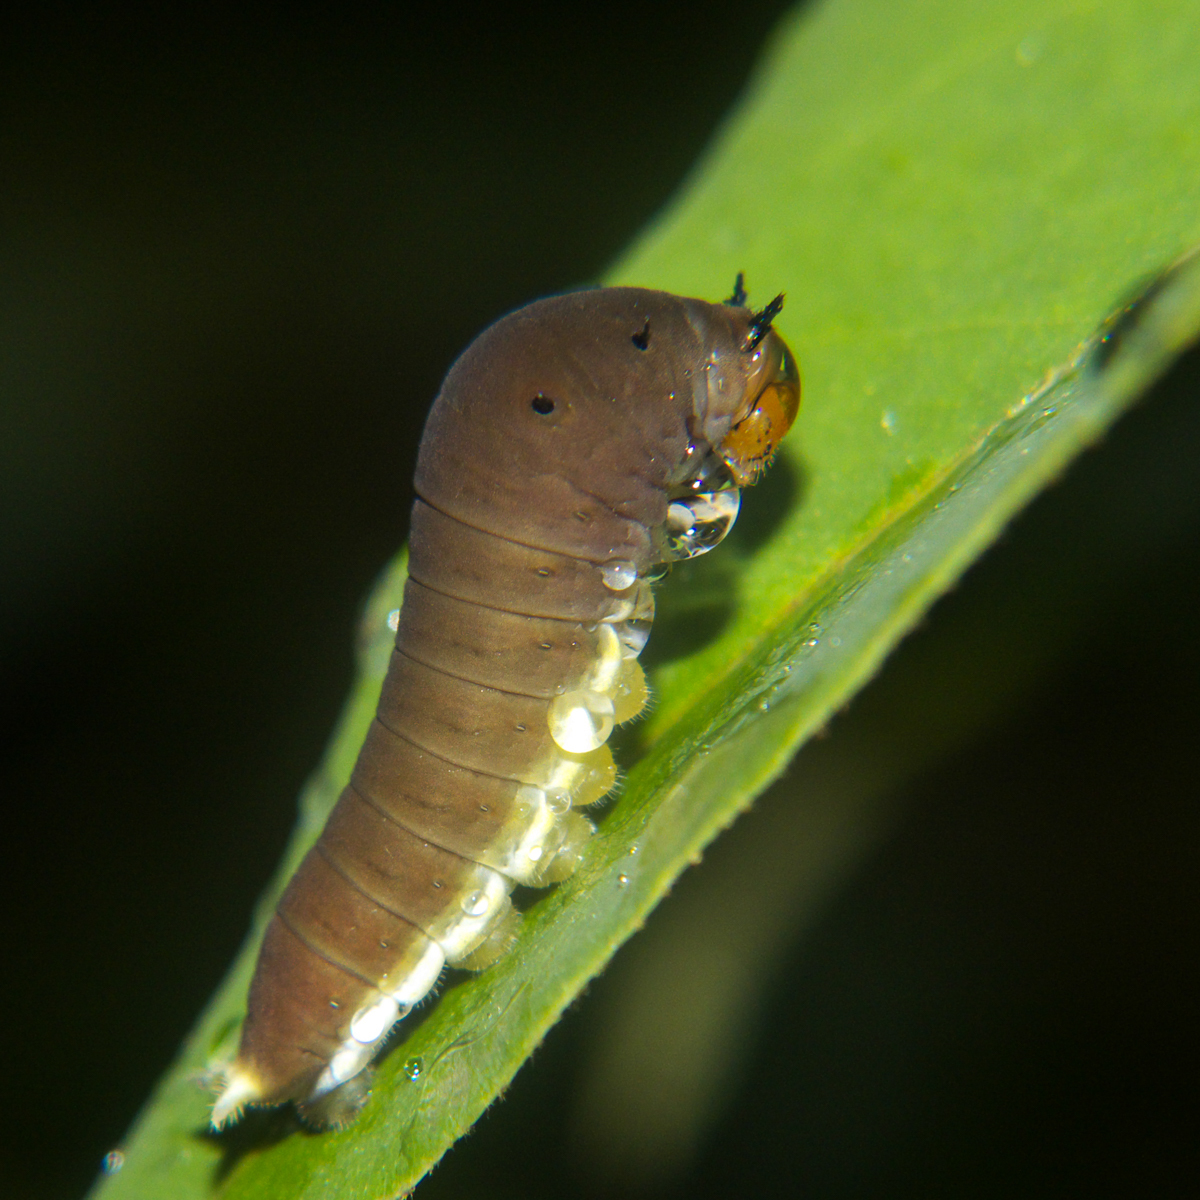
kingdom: Animalia
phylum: Arthropoda
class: Insecta
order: Lepidoptera
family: Papilionidae
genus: Graphium
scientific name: Graphium doson
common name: Common jay
